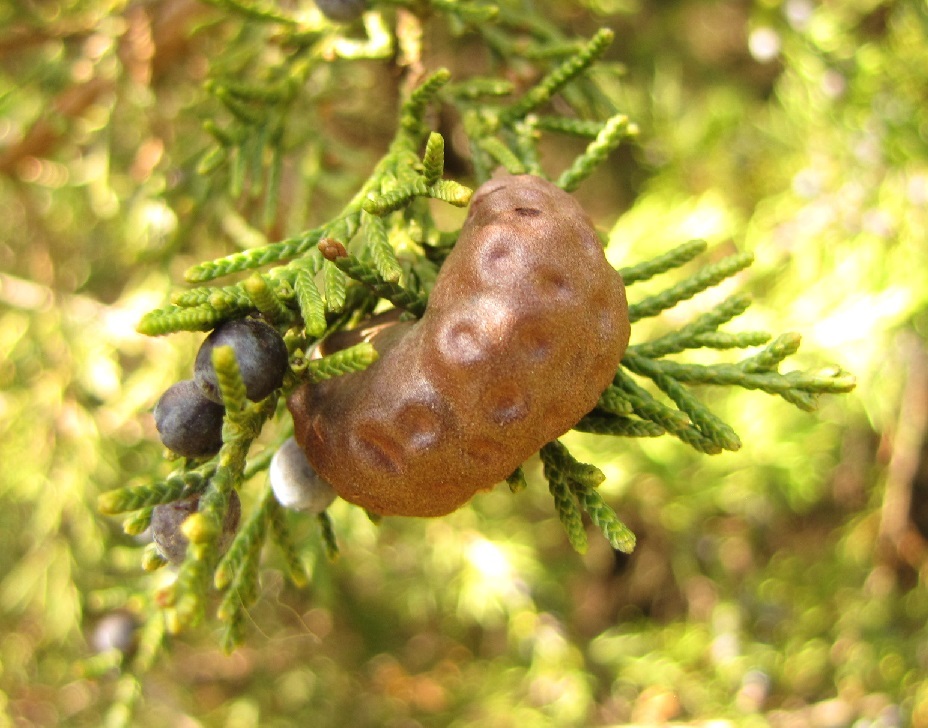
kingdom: Fungi
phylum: Basidiomycota
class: Pucciniomycetes
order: Pucciniales
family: Gymnosporangiaceae
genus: Gymnosporangium
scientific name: Gymnosporangium juniperi-virginianae
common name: Juniper-apple rust
